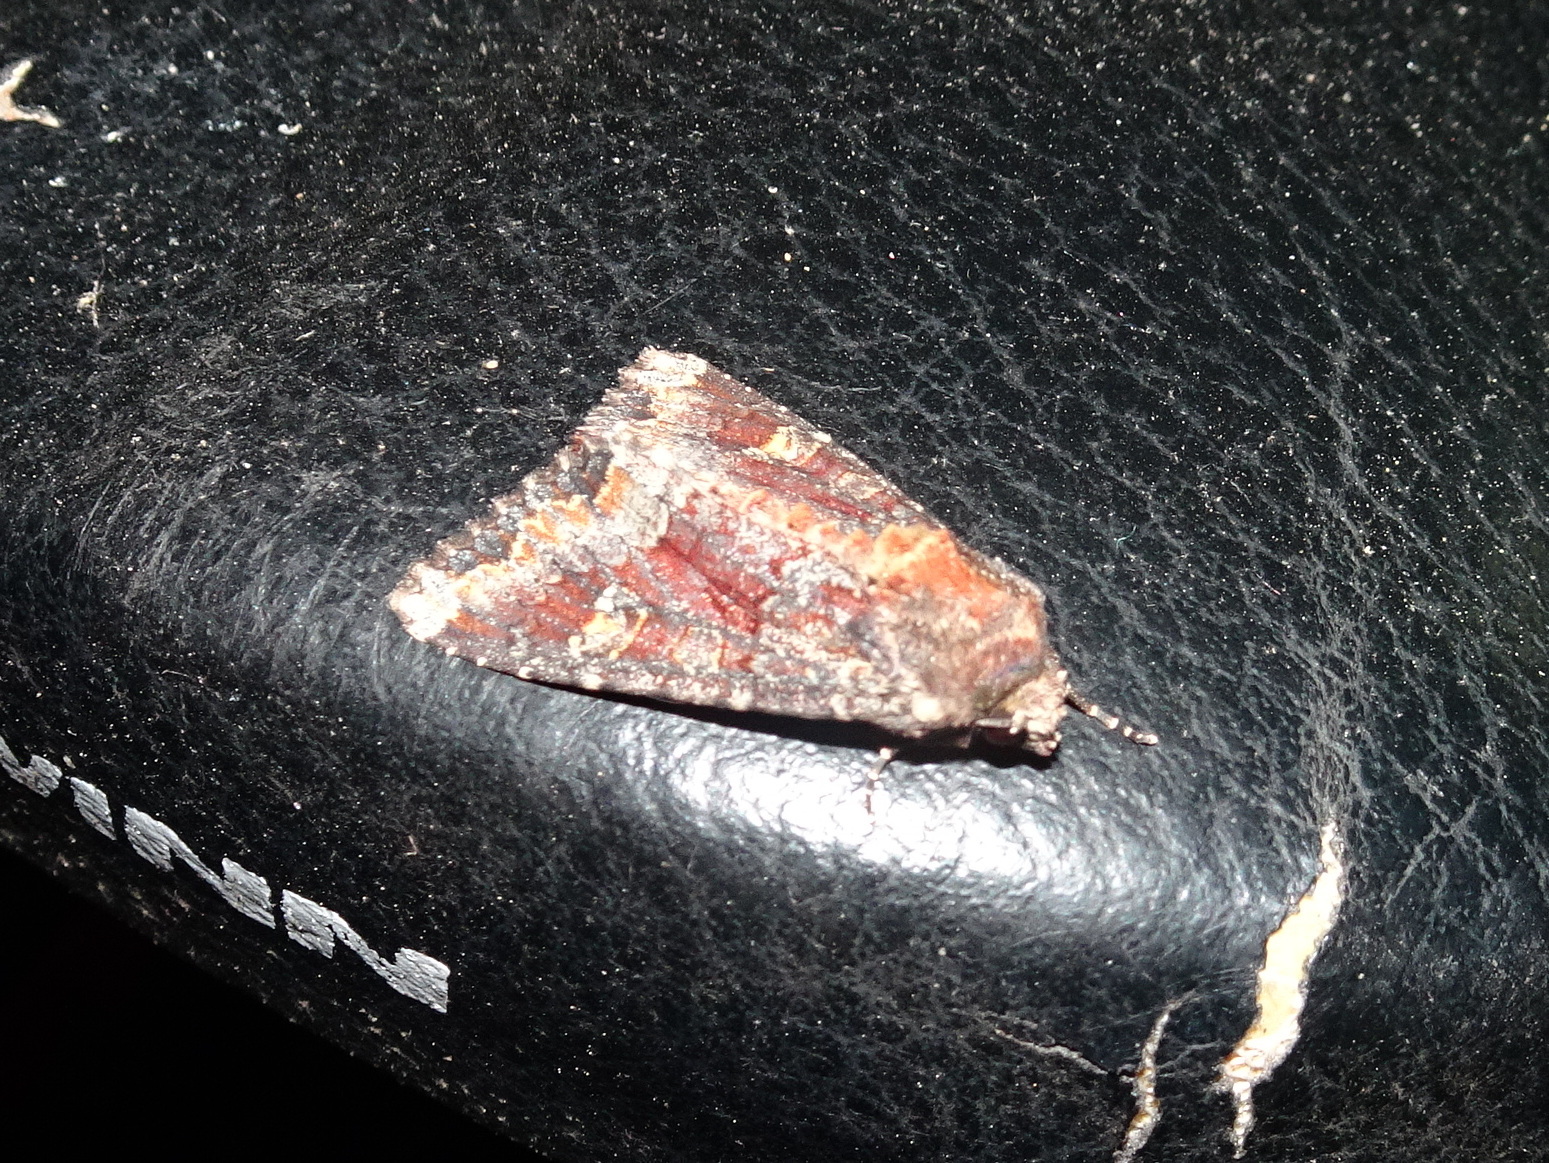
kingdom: Animalia
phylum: Arthropoda
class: Insecta
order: Lepidoptera
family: Noctuidae
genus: Apamea
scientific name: Apamea amputatrix
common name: Yellow-headed cutworm moth
